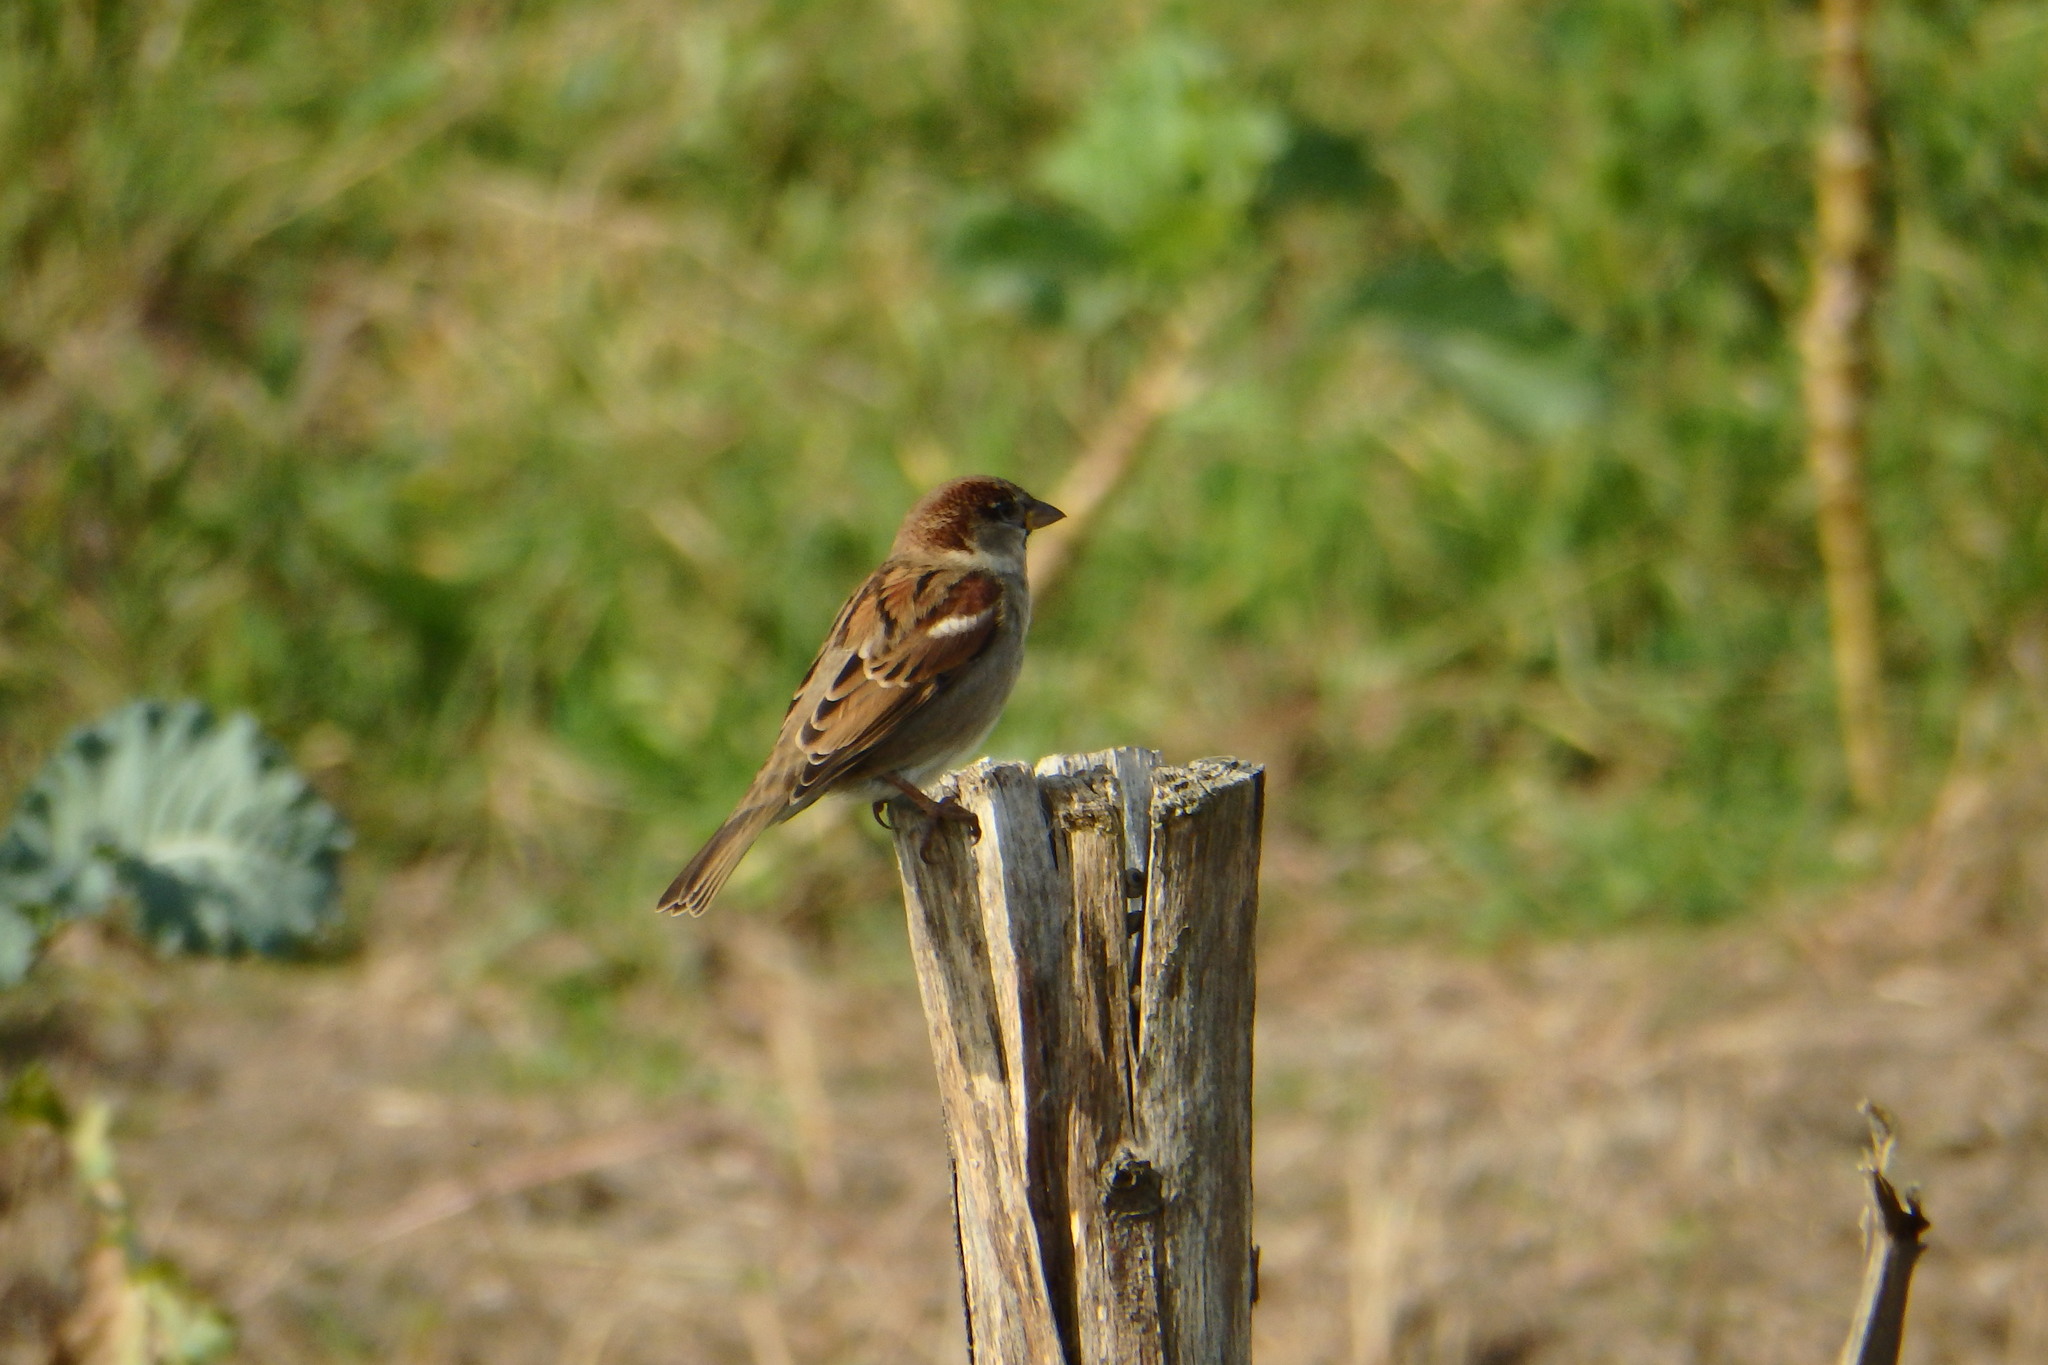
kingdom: Animalia
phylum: Chordata
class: Aves
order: Passeriformes
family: Passeridae
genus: Passer
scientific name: Passer domesticus
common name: House sparrow
